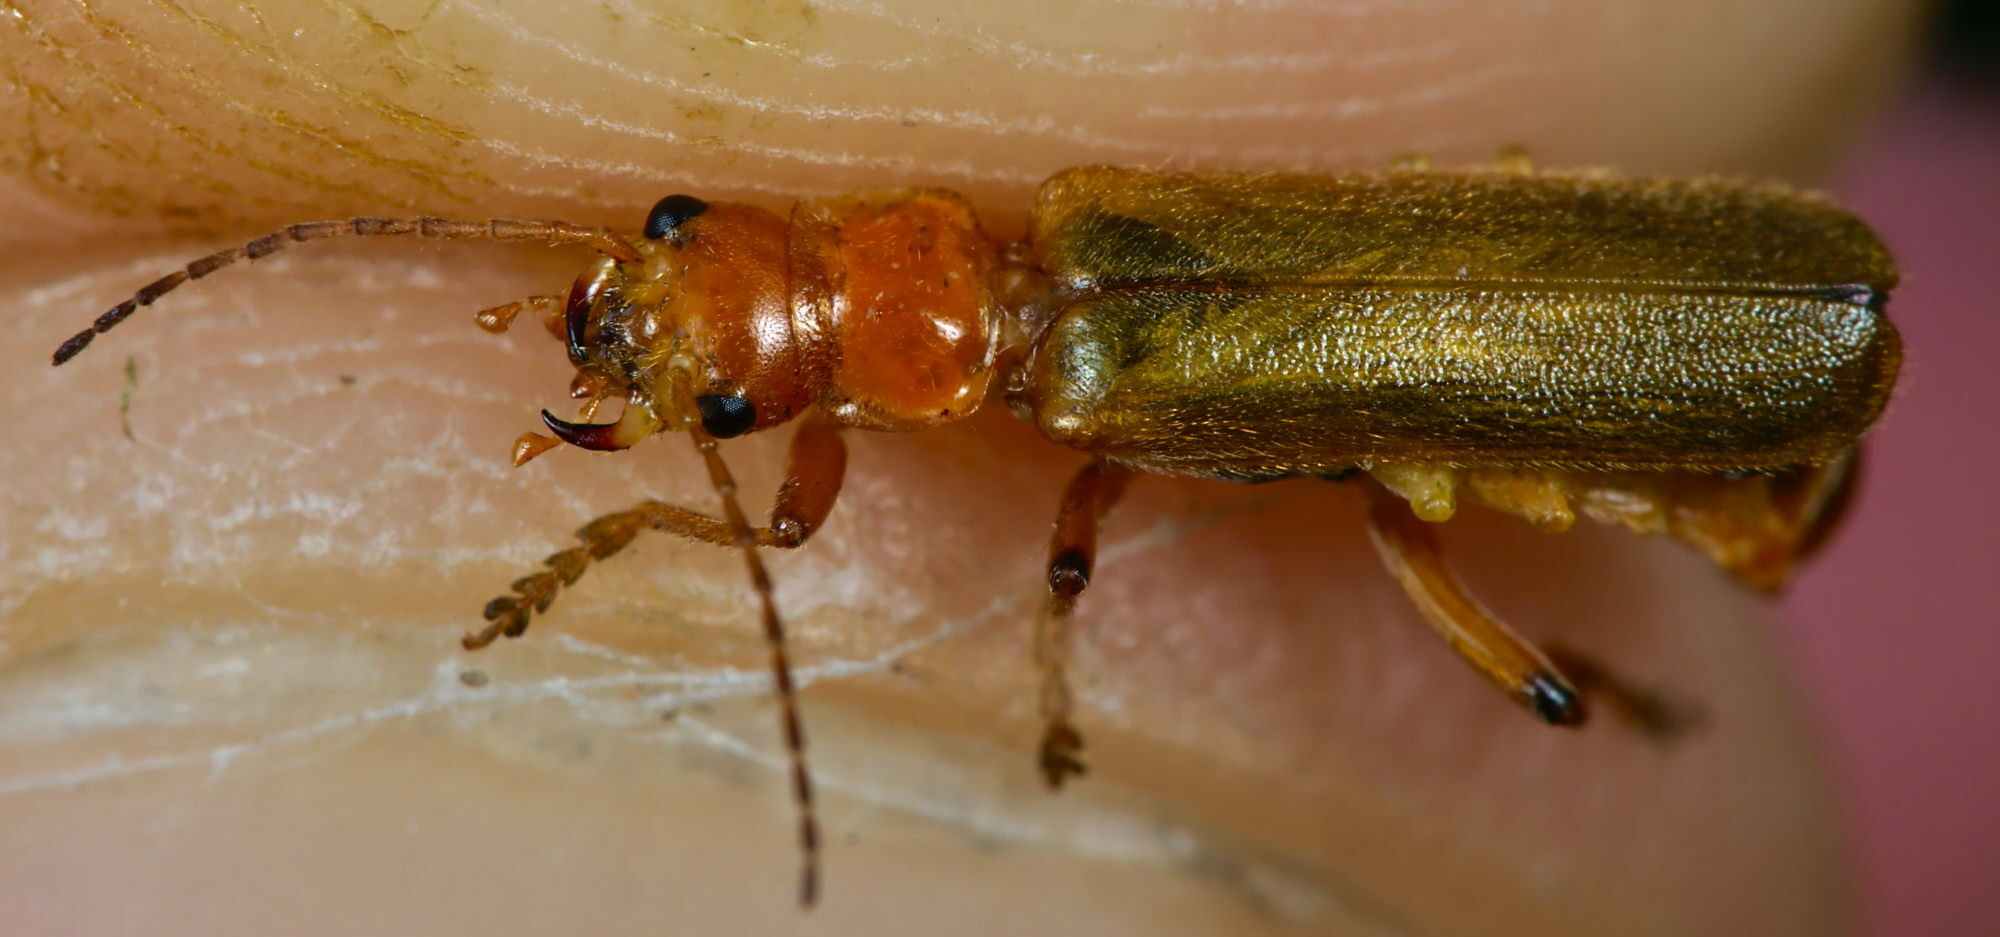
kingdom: Animalia
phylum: Arthropoda
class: Insecta
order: Coleoptera
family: Cantharidae
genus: Cantharis
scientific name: Cantharis cryptica
